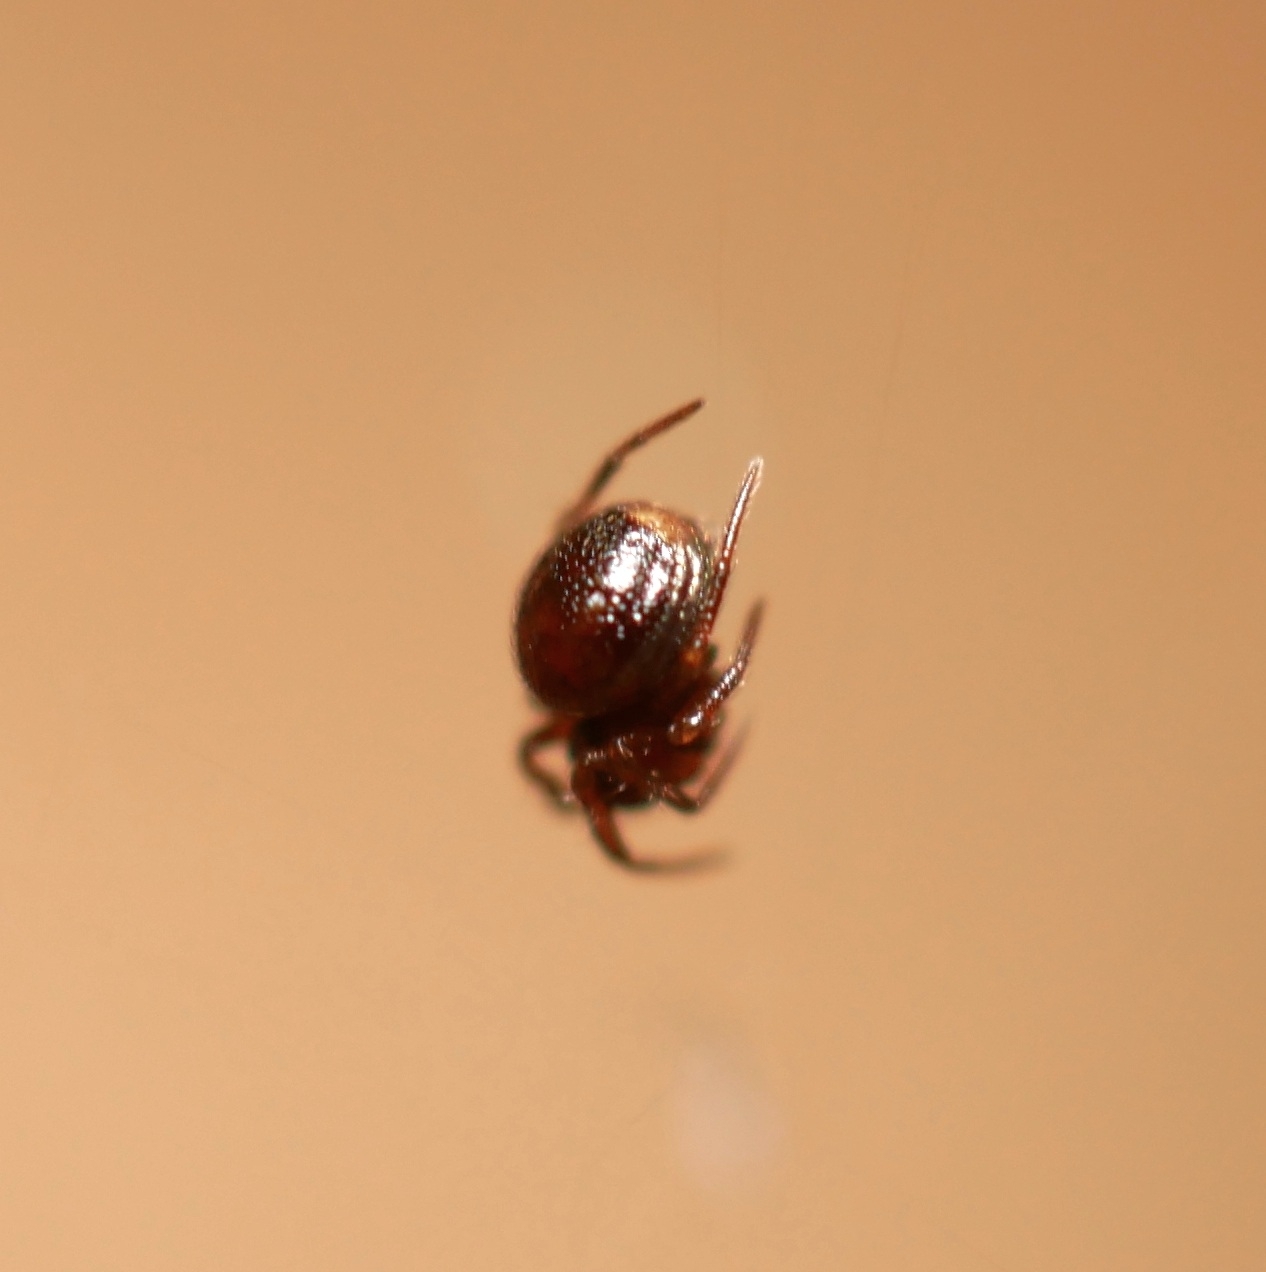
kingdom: Animalia
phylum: Arthropoda
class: Arachnida
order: Araneae
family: Anapidae
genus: Gertschanapis
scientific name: Gertschanapis shantzi
